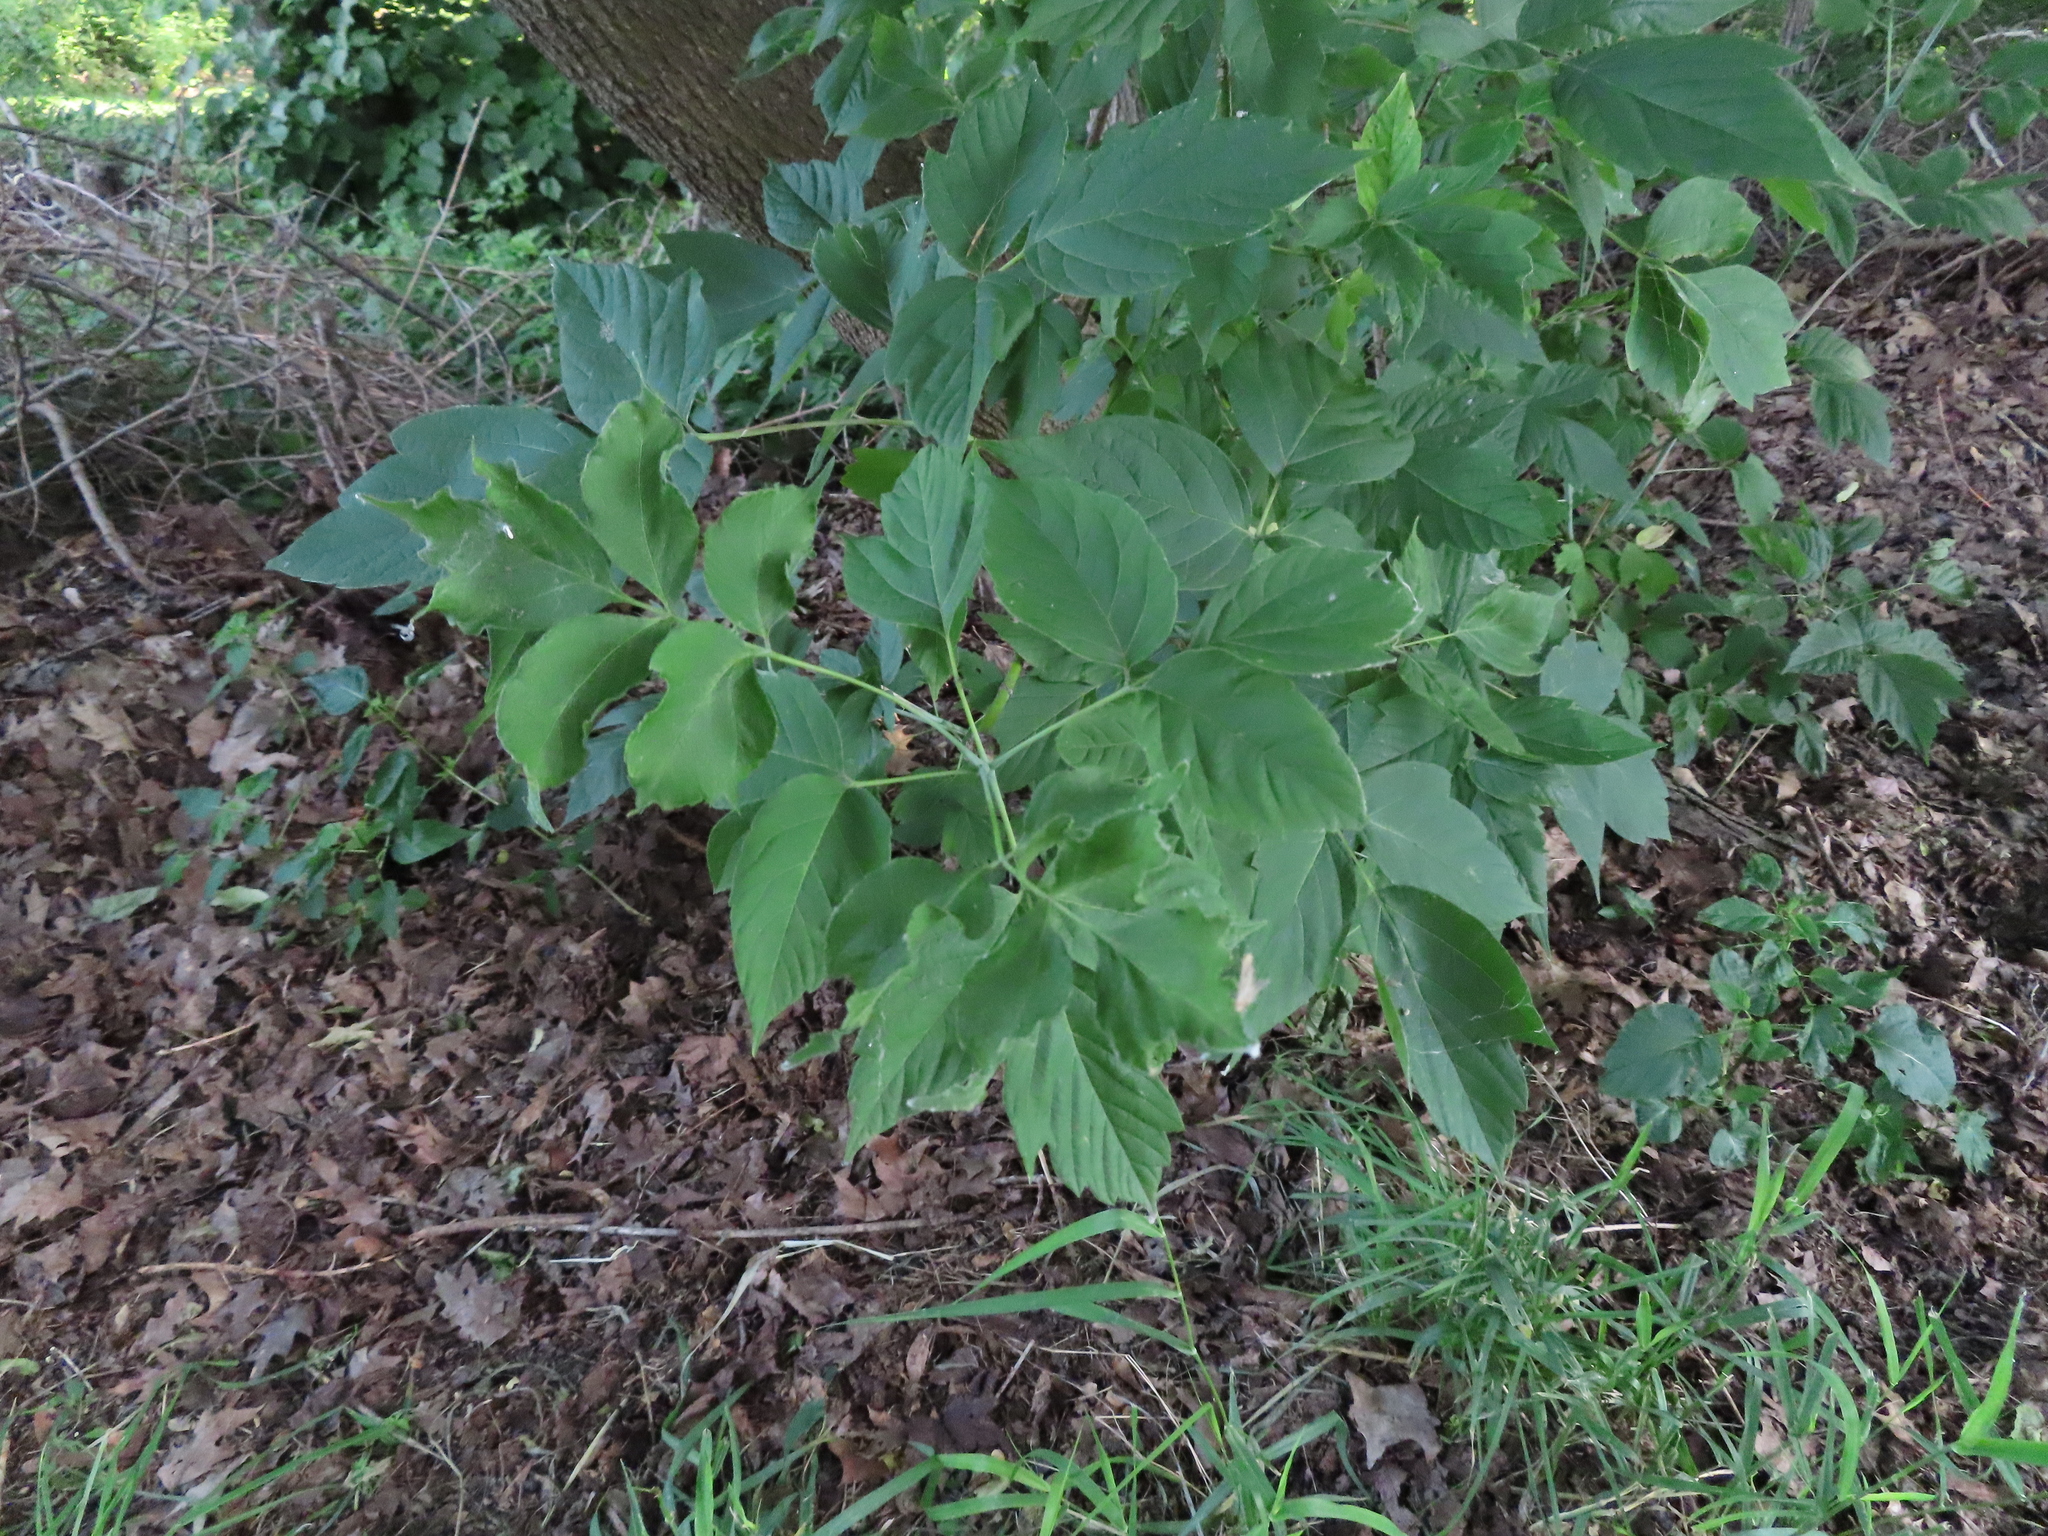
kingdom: Plantae
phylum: Tracheophyta
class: Magnoliopsida
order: Sapindales
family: Sapindaceae
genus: Acer
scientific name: Acer negundo
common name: Ashleaf maple
